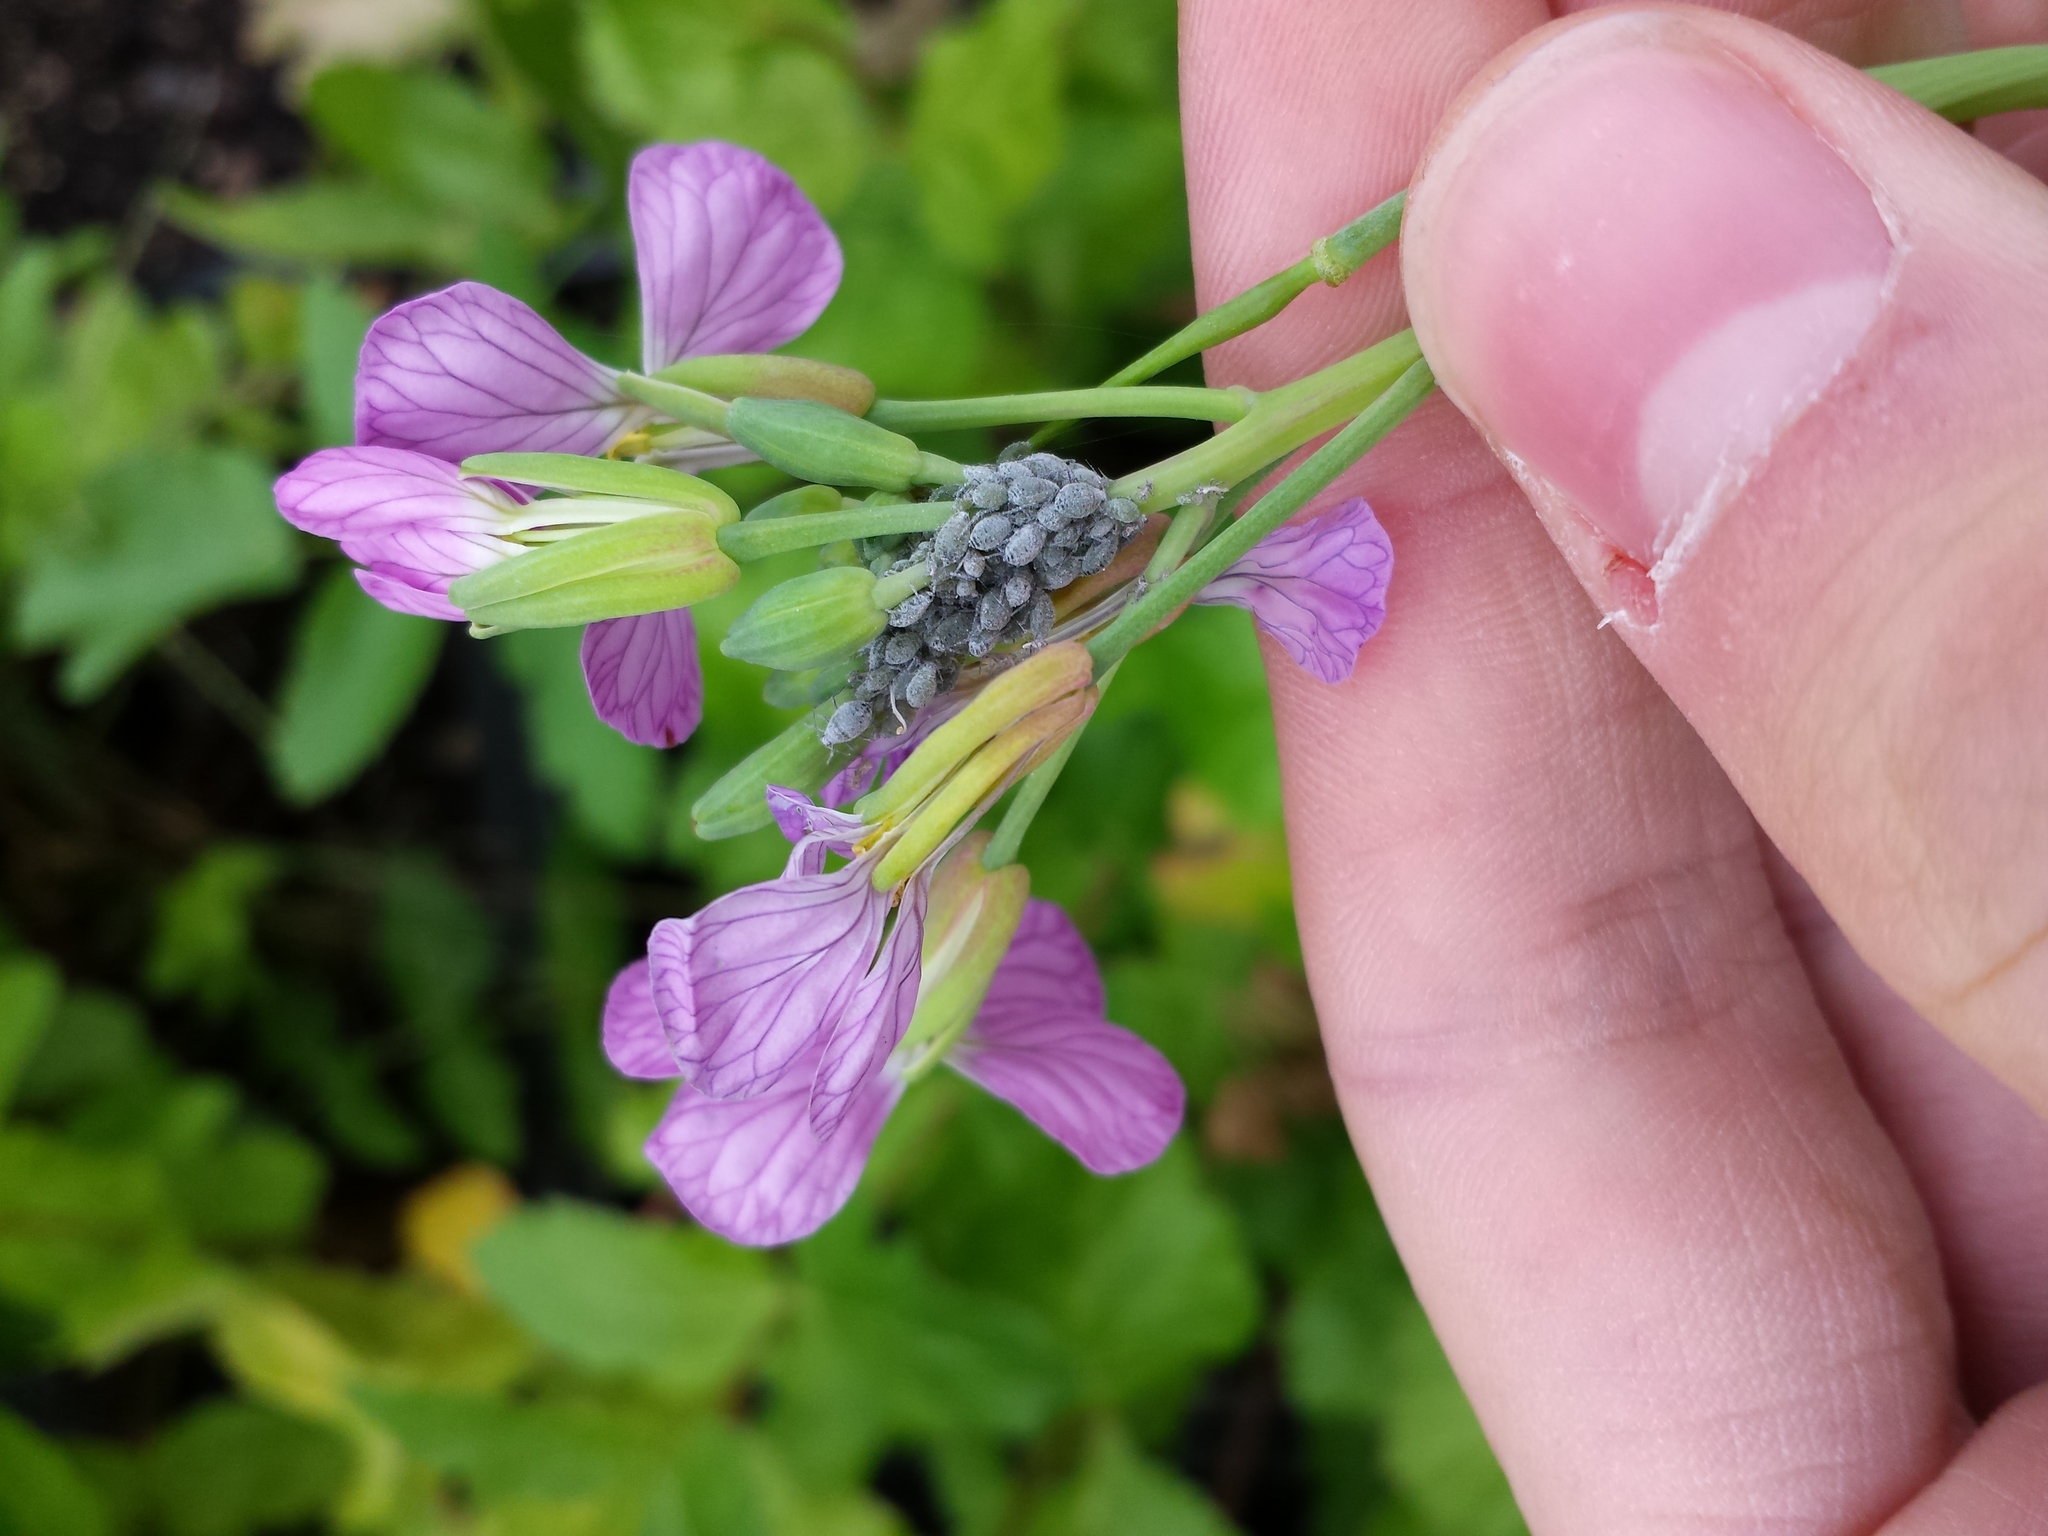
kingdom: Animalia
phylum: Arthropoda
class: Insecta
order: Hemiptera
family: Aphididae
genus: Brevicoryne
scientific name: Brevicoryne brassicae
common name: Cabbage aphid
